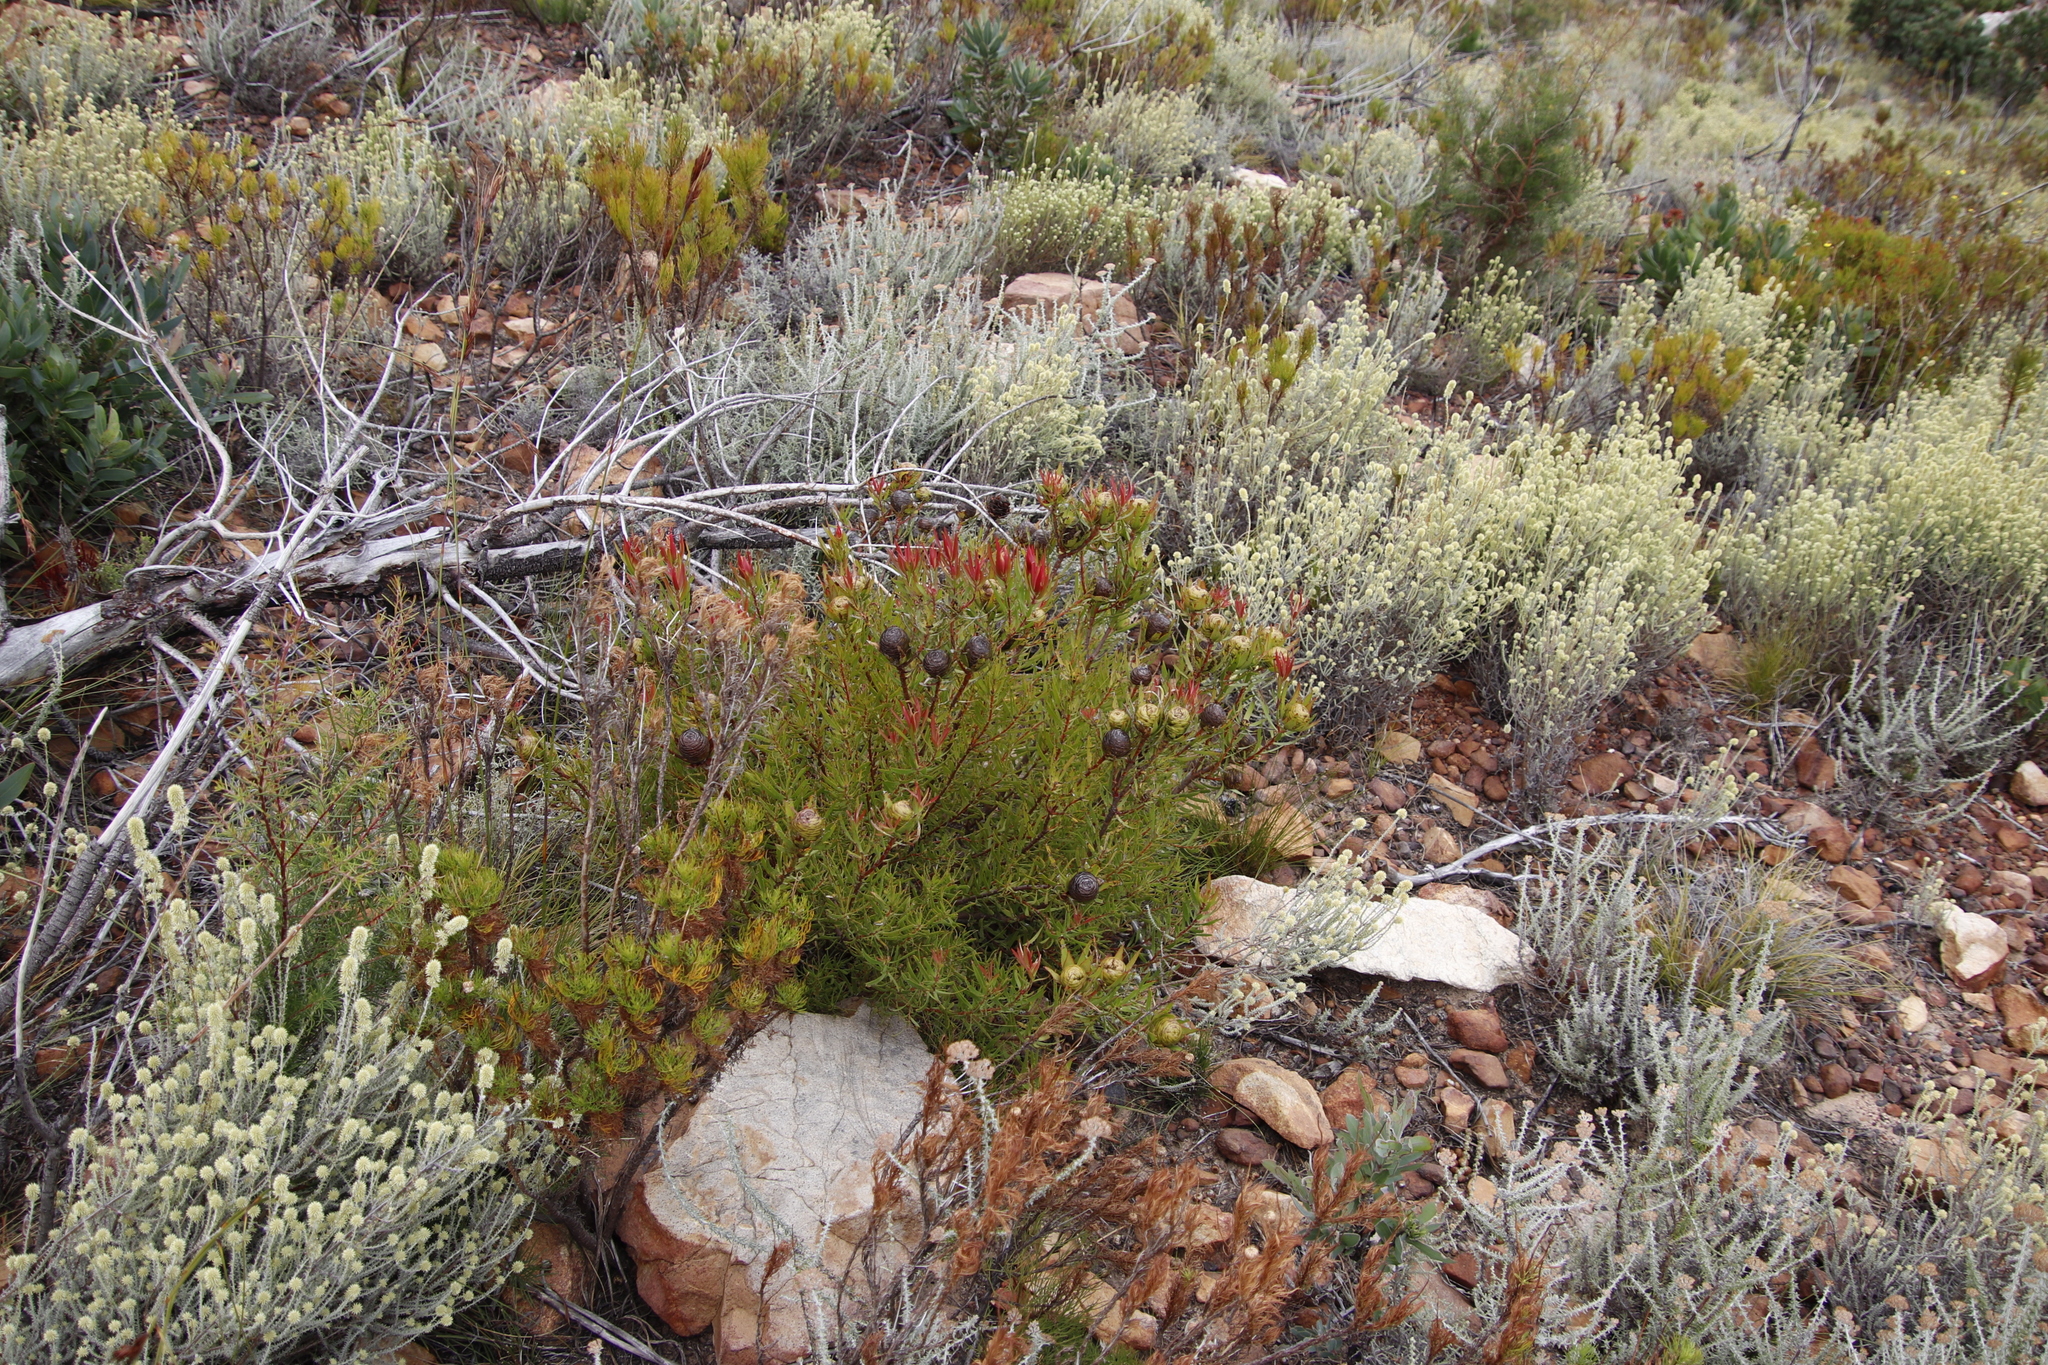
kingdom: Plantae
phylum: Tracheophyta
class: Magnoliopsida
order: Proteales
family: Proteaceae
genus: Leucadendron
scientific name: Leucadendron spissifolium
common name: Spear-leaf conebush
